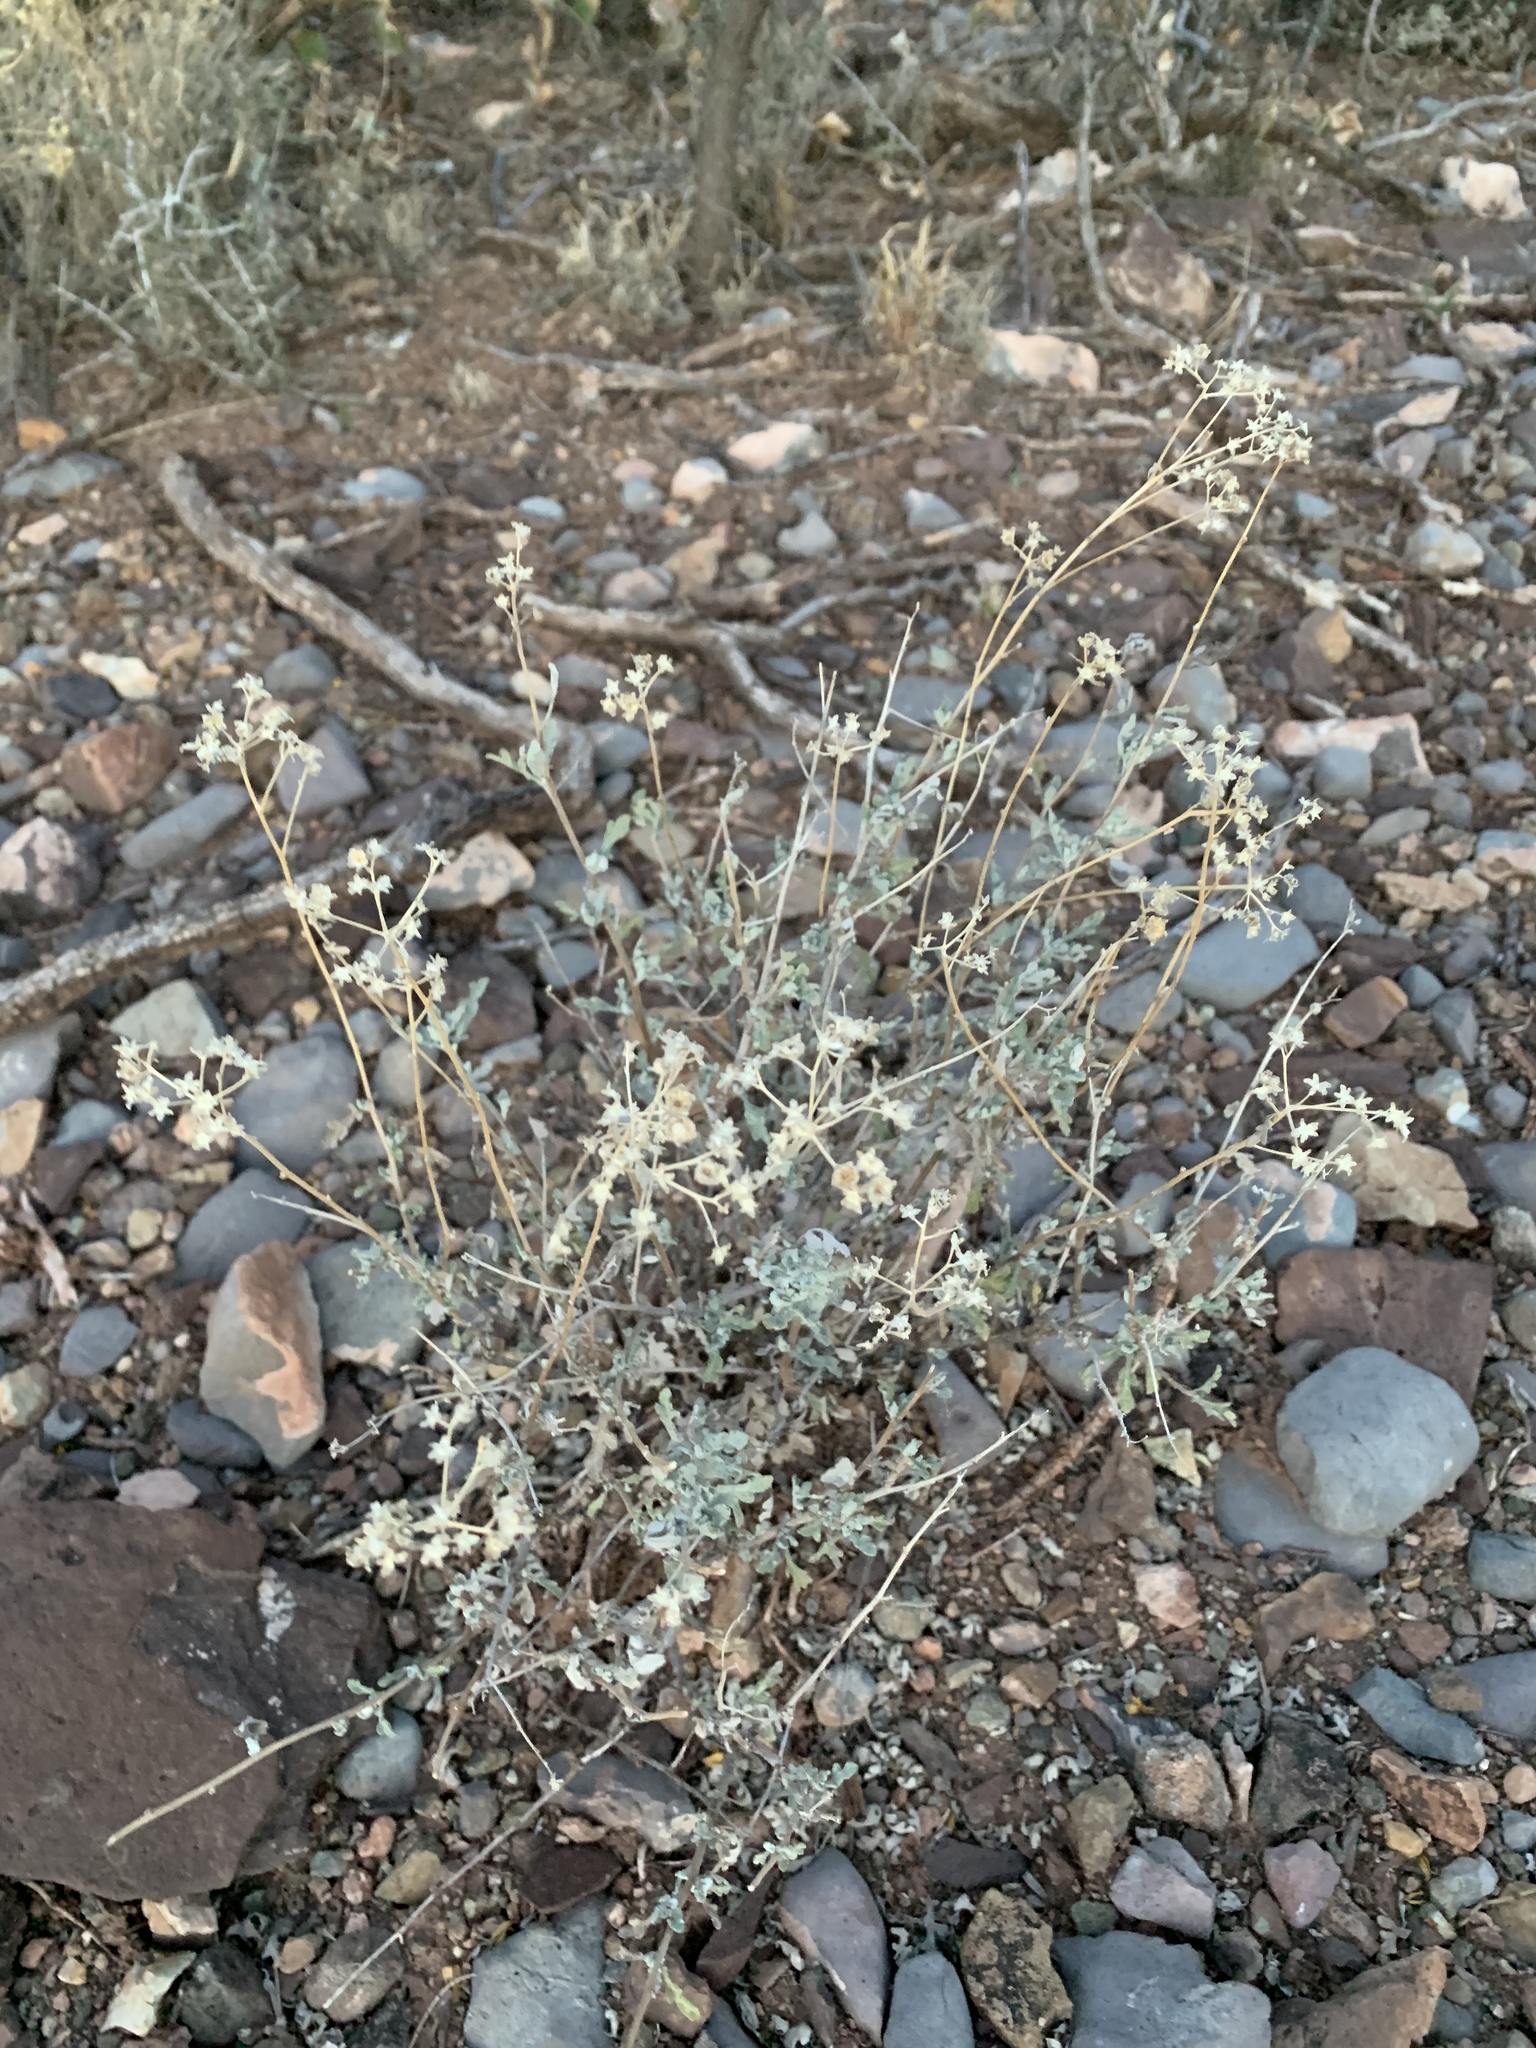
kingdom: Plantae
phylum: Tracheophyta
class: Magnoliopsida
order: Asterales
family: Asteraceae
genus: Parthenium
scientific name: Parthenium incanum
